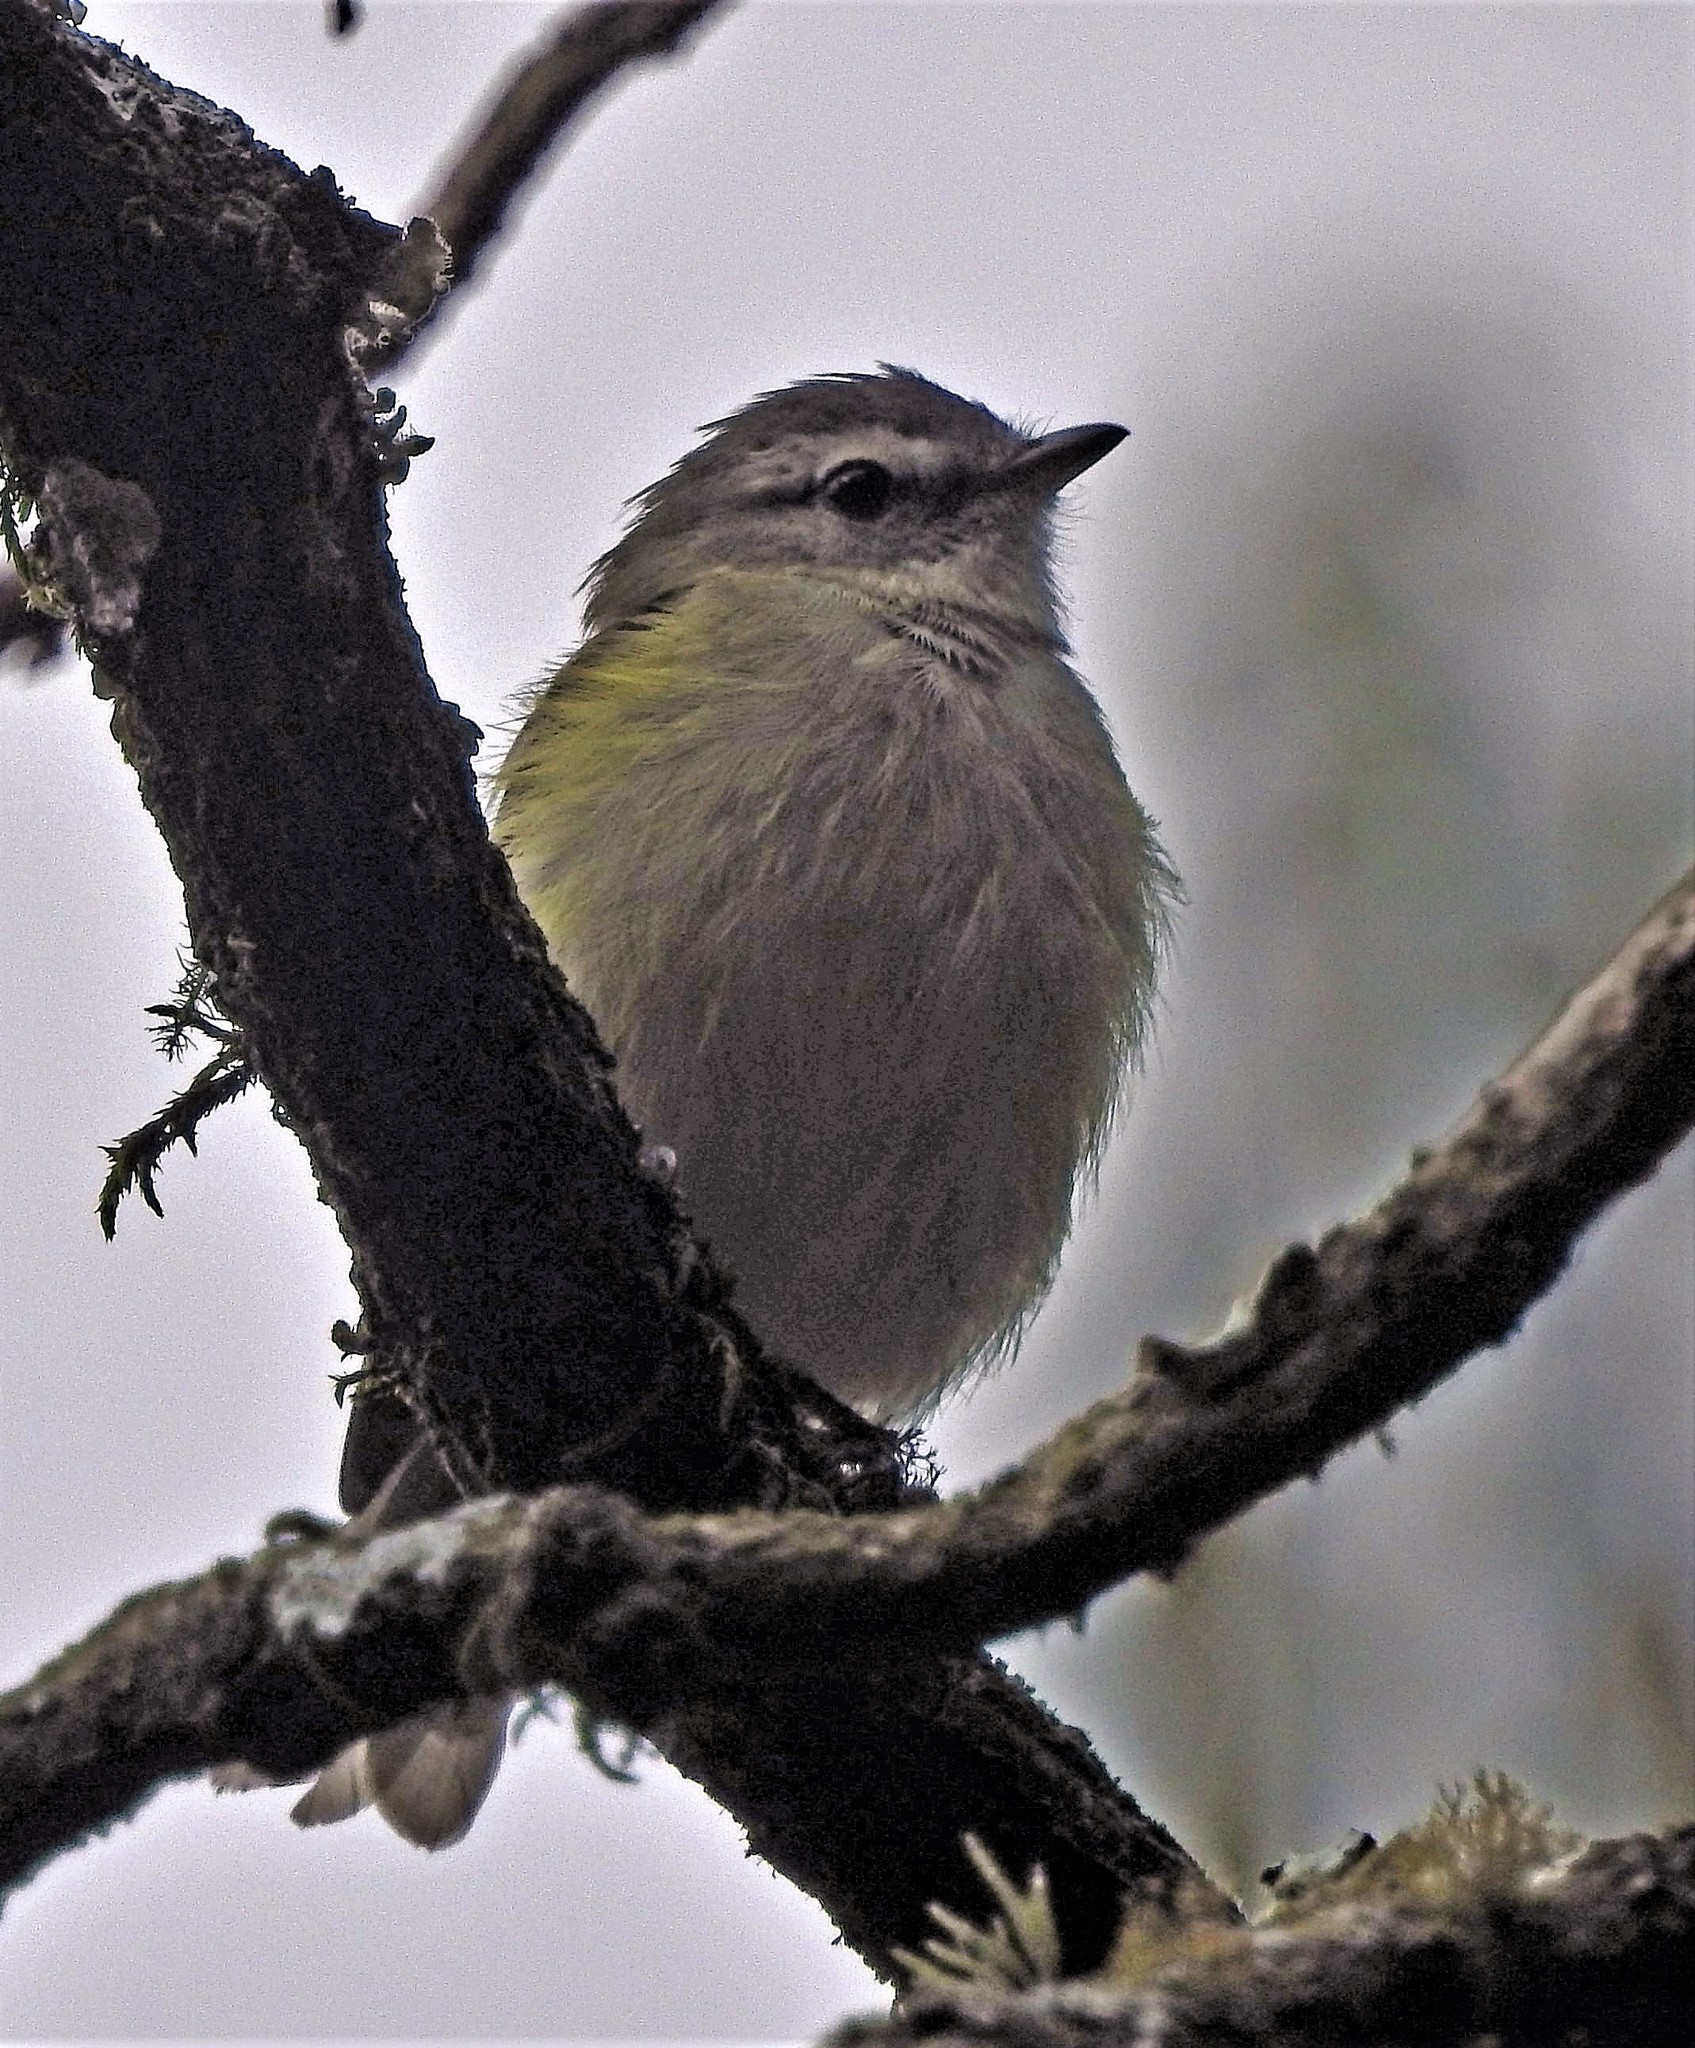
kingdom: Animalia
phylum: Chordata
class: Aves
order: Passeriformes
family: Tyrannidae
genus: Phyllomyias
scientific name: Phyllomyias sclateri
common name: Sclater's tyrannulet
